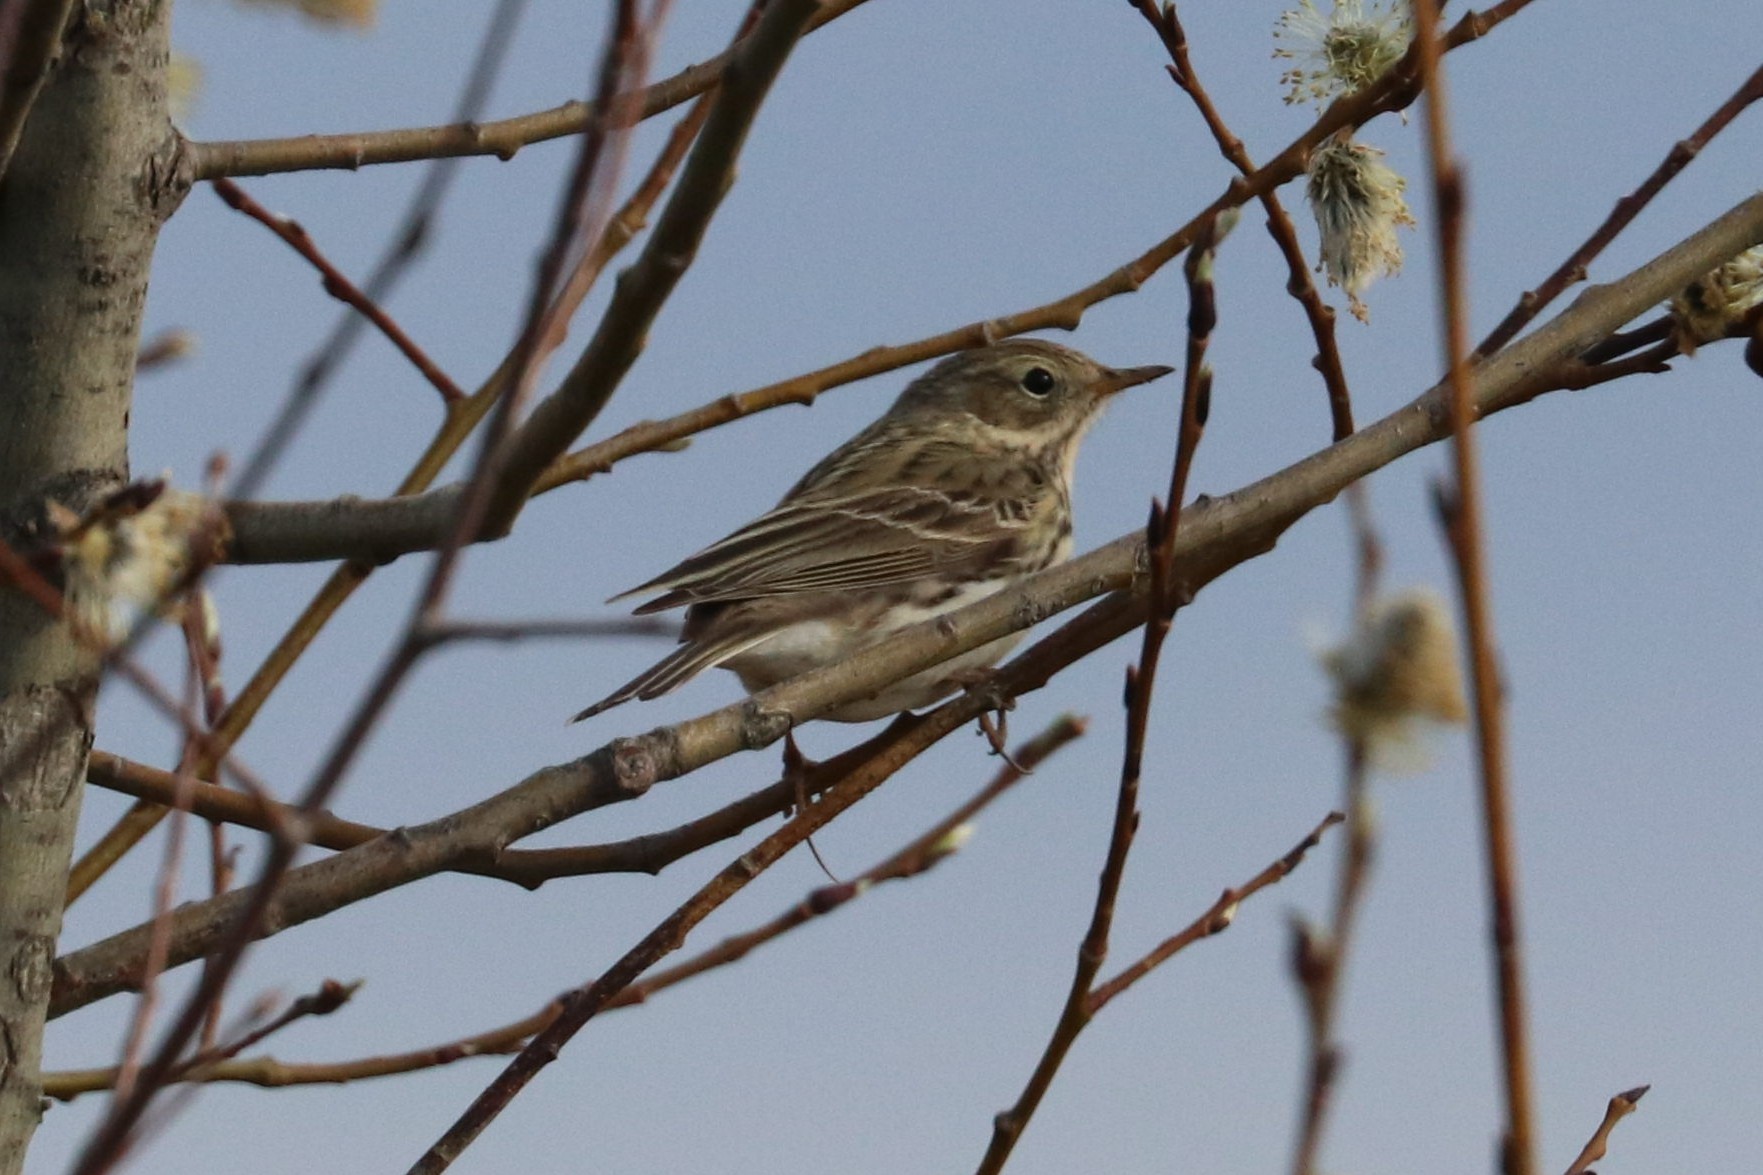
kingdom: Animalia
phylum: Chordata
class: Aves
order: Passeriformes
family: Motacillidae
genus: Anthus
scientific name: Anthus pratensis
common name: Meadow pipit
